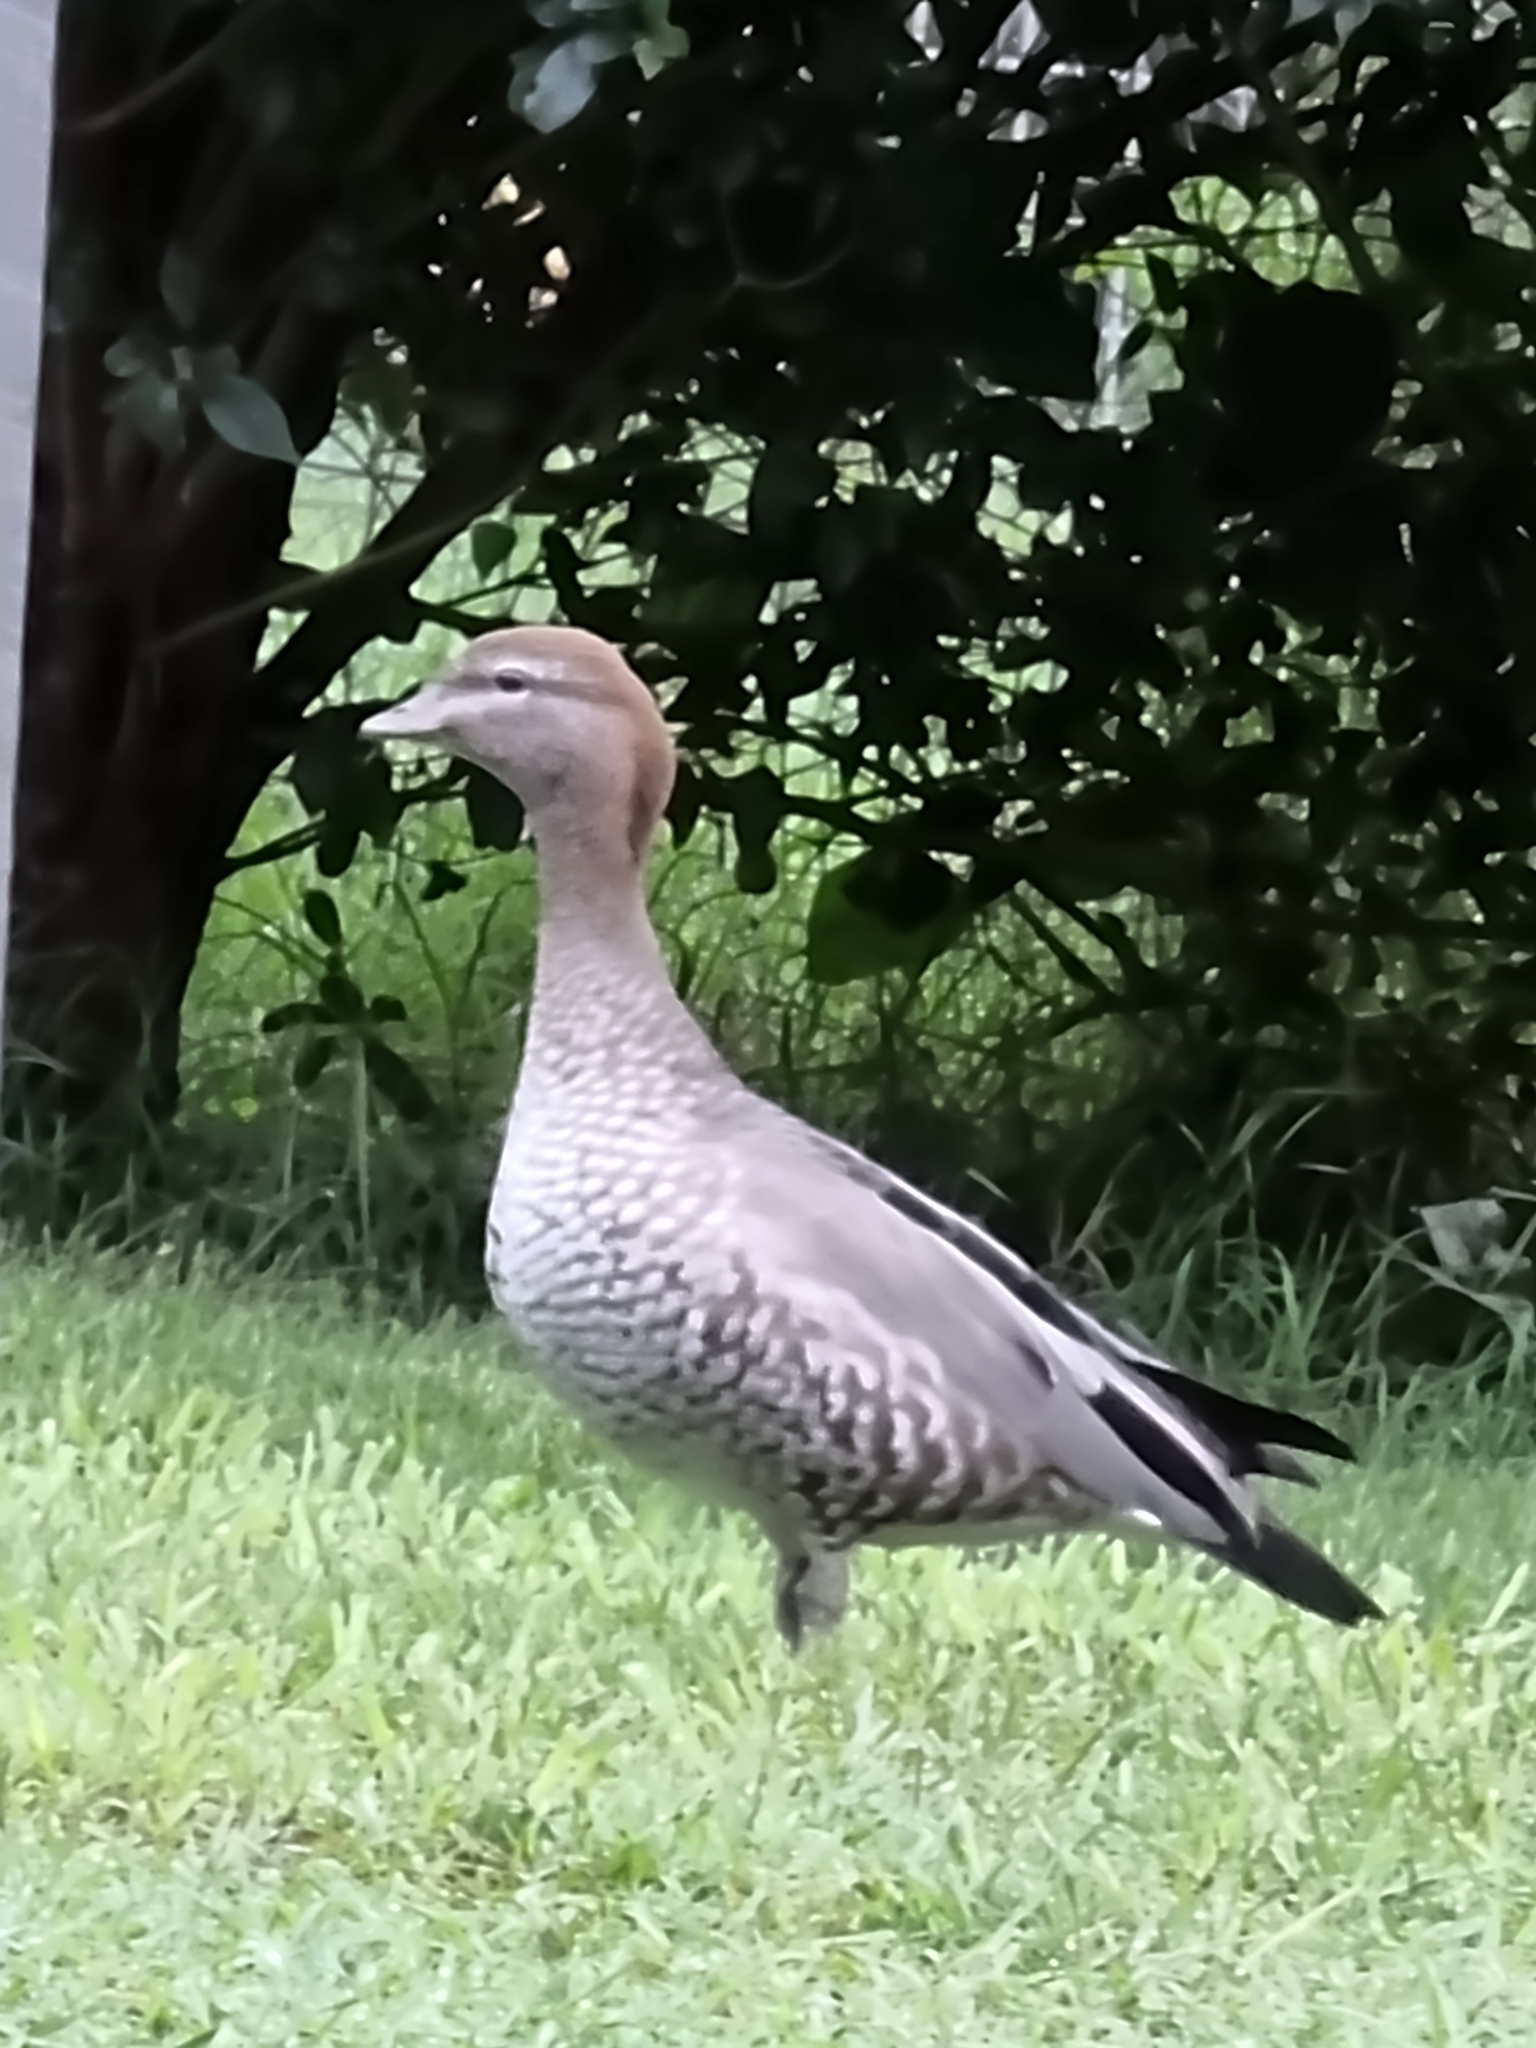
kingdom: Animalia
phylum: Chordata
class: Aves
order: Anseriformes
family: Anatidae
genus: Chenonetta
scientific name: Chenonetta jubata
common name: Maned duck
